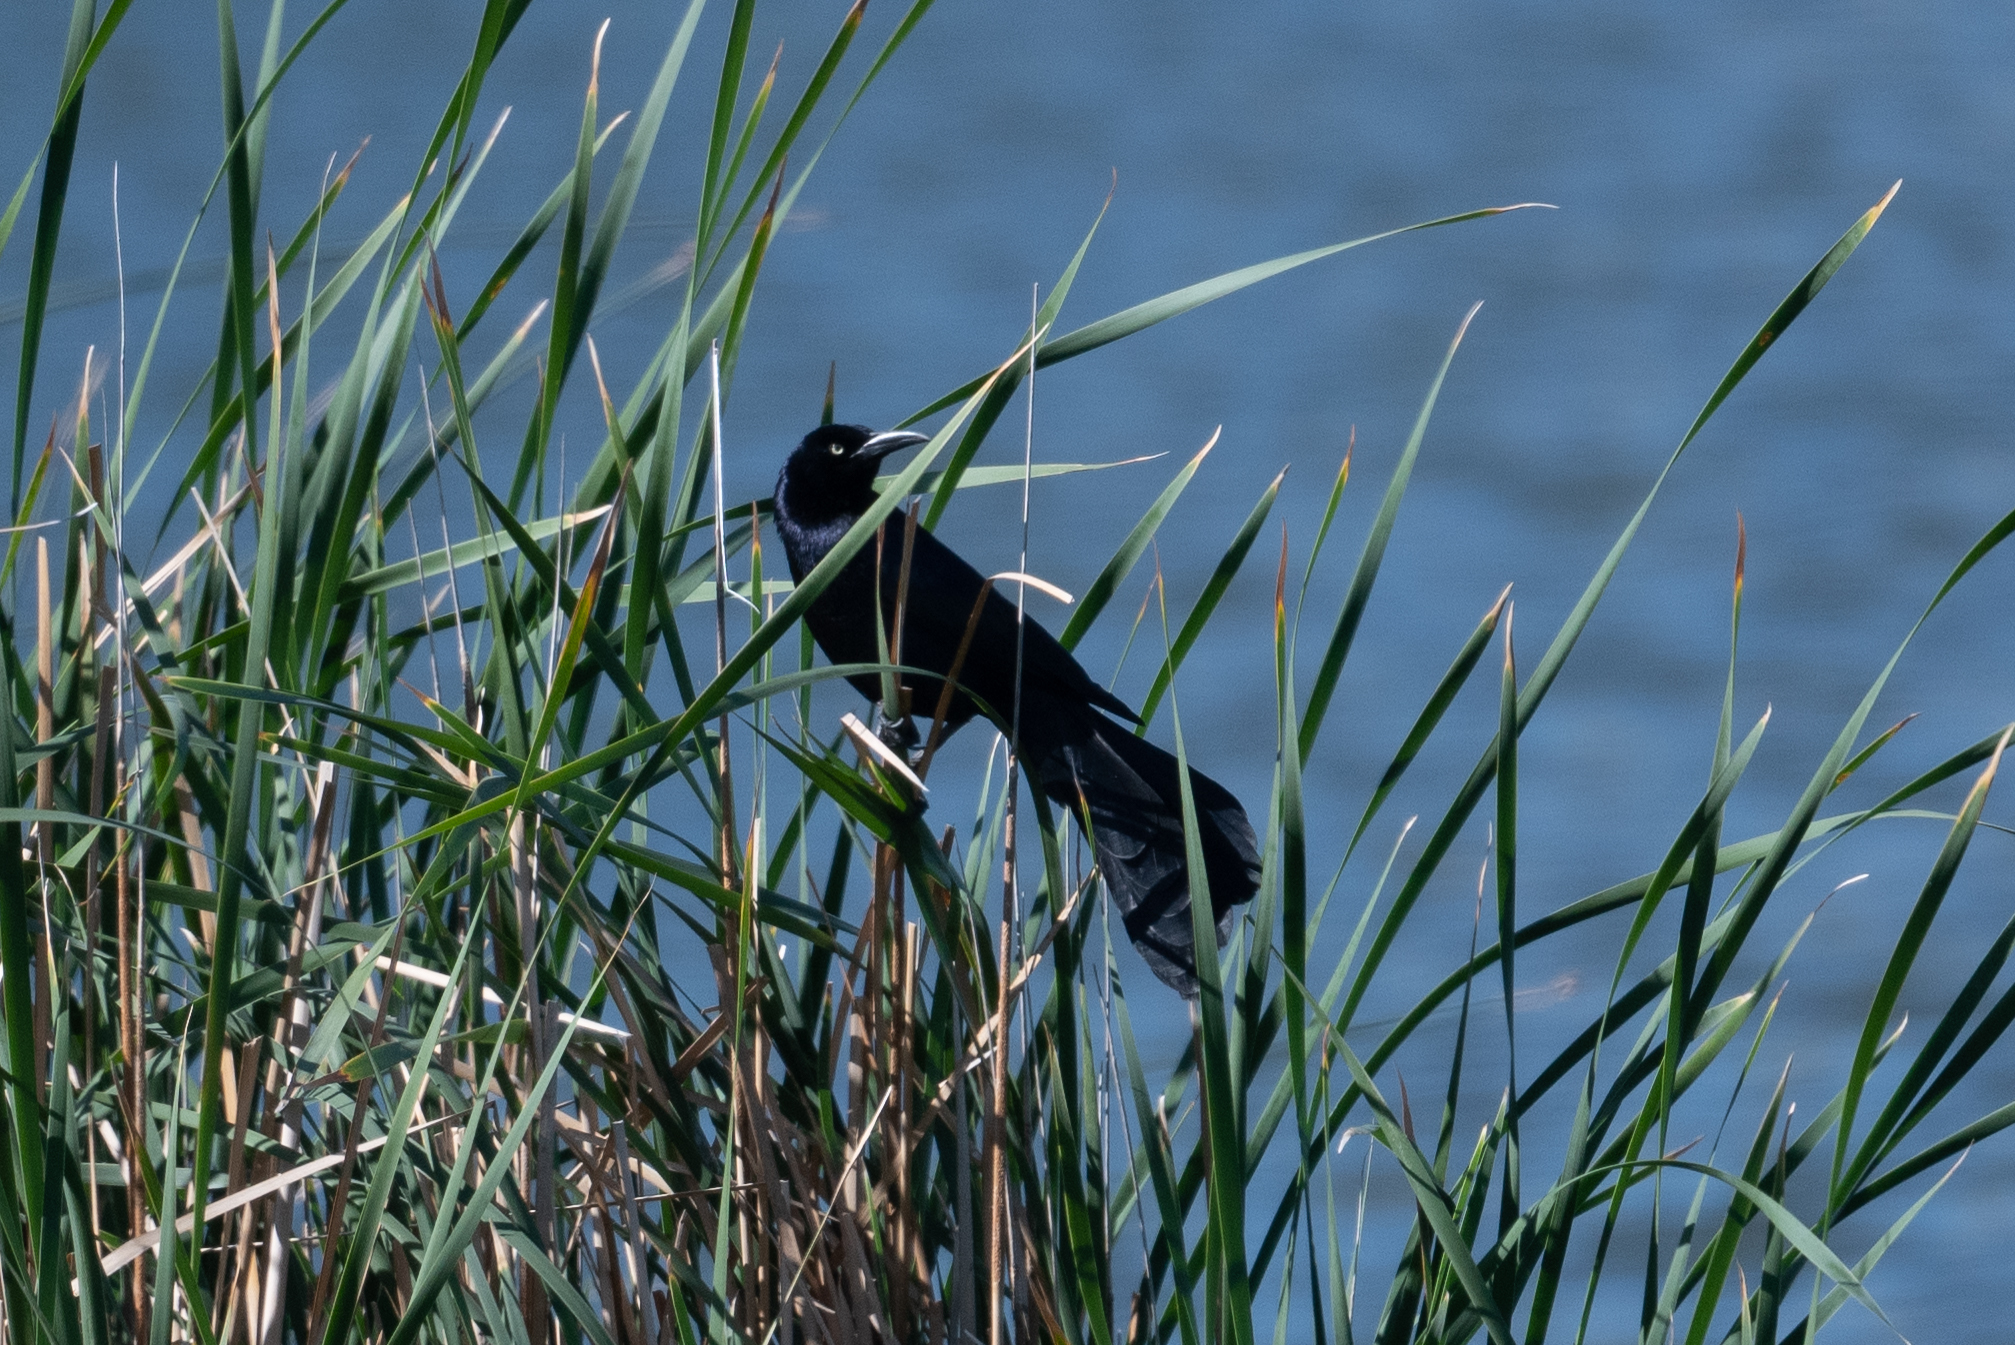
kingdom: Animalia
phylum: Chordata
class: Aves
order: Passeriformes
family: Icteridae
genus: Quiscalus
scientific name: Quiscalus mexicanus
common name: Great-tailed grackle
